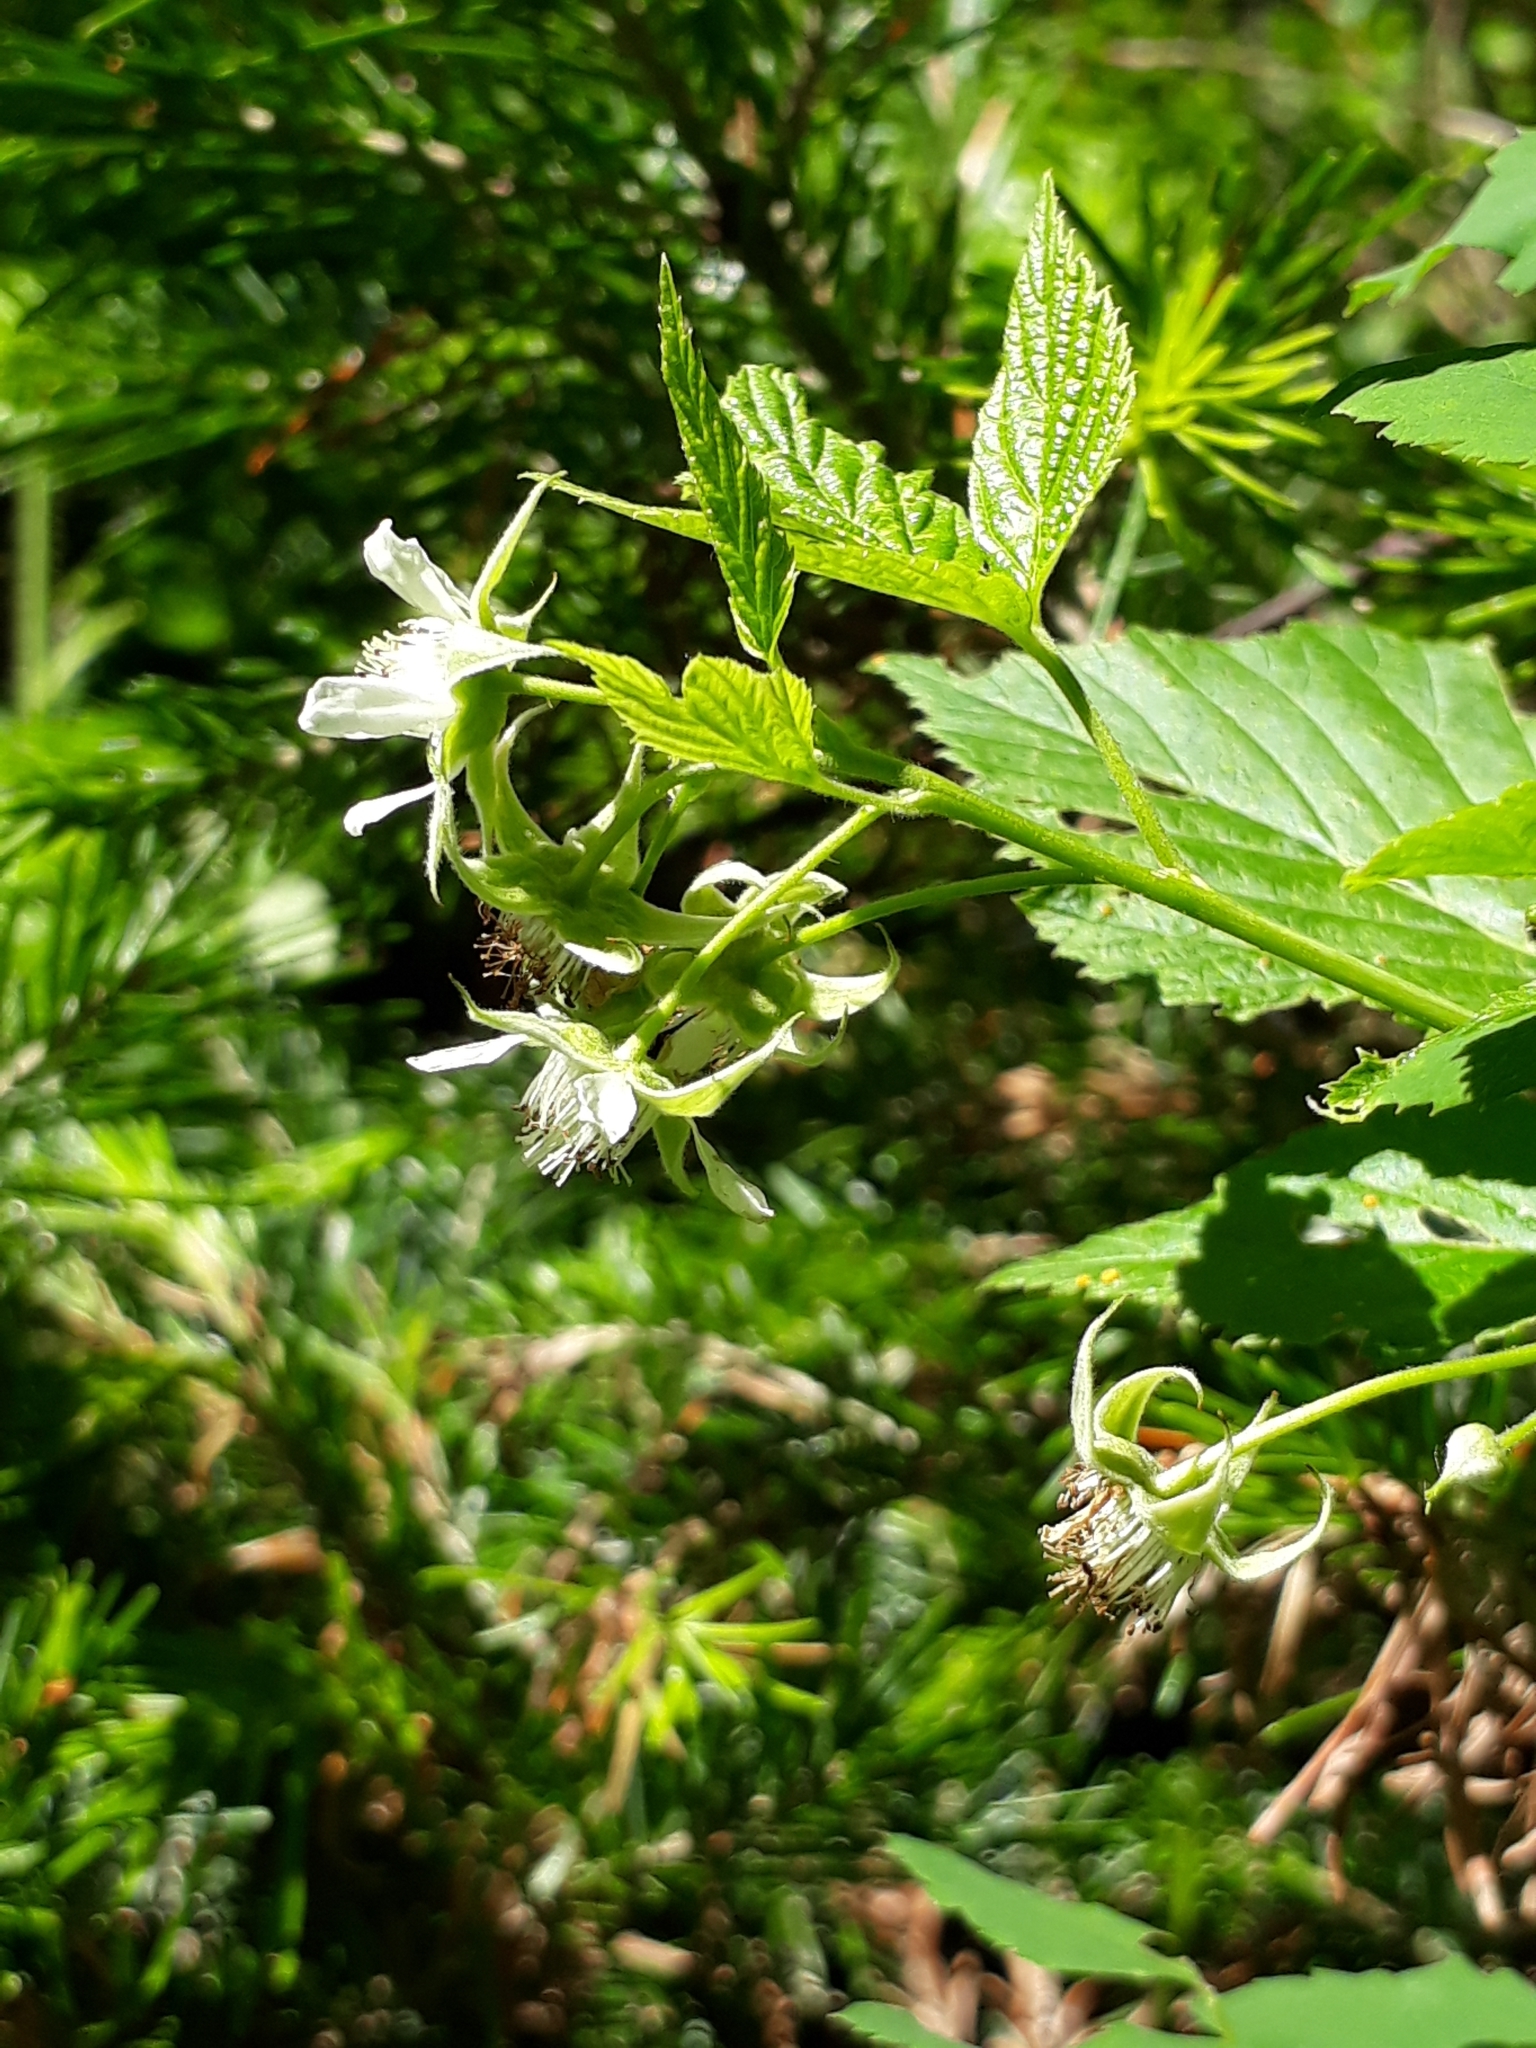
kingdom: Plantae
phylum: Tracheophyta
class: Magnoliopsida
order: Rosales
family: Rosaceae
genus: Rubus
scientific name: Rubus idaeus
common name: Raspberry
